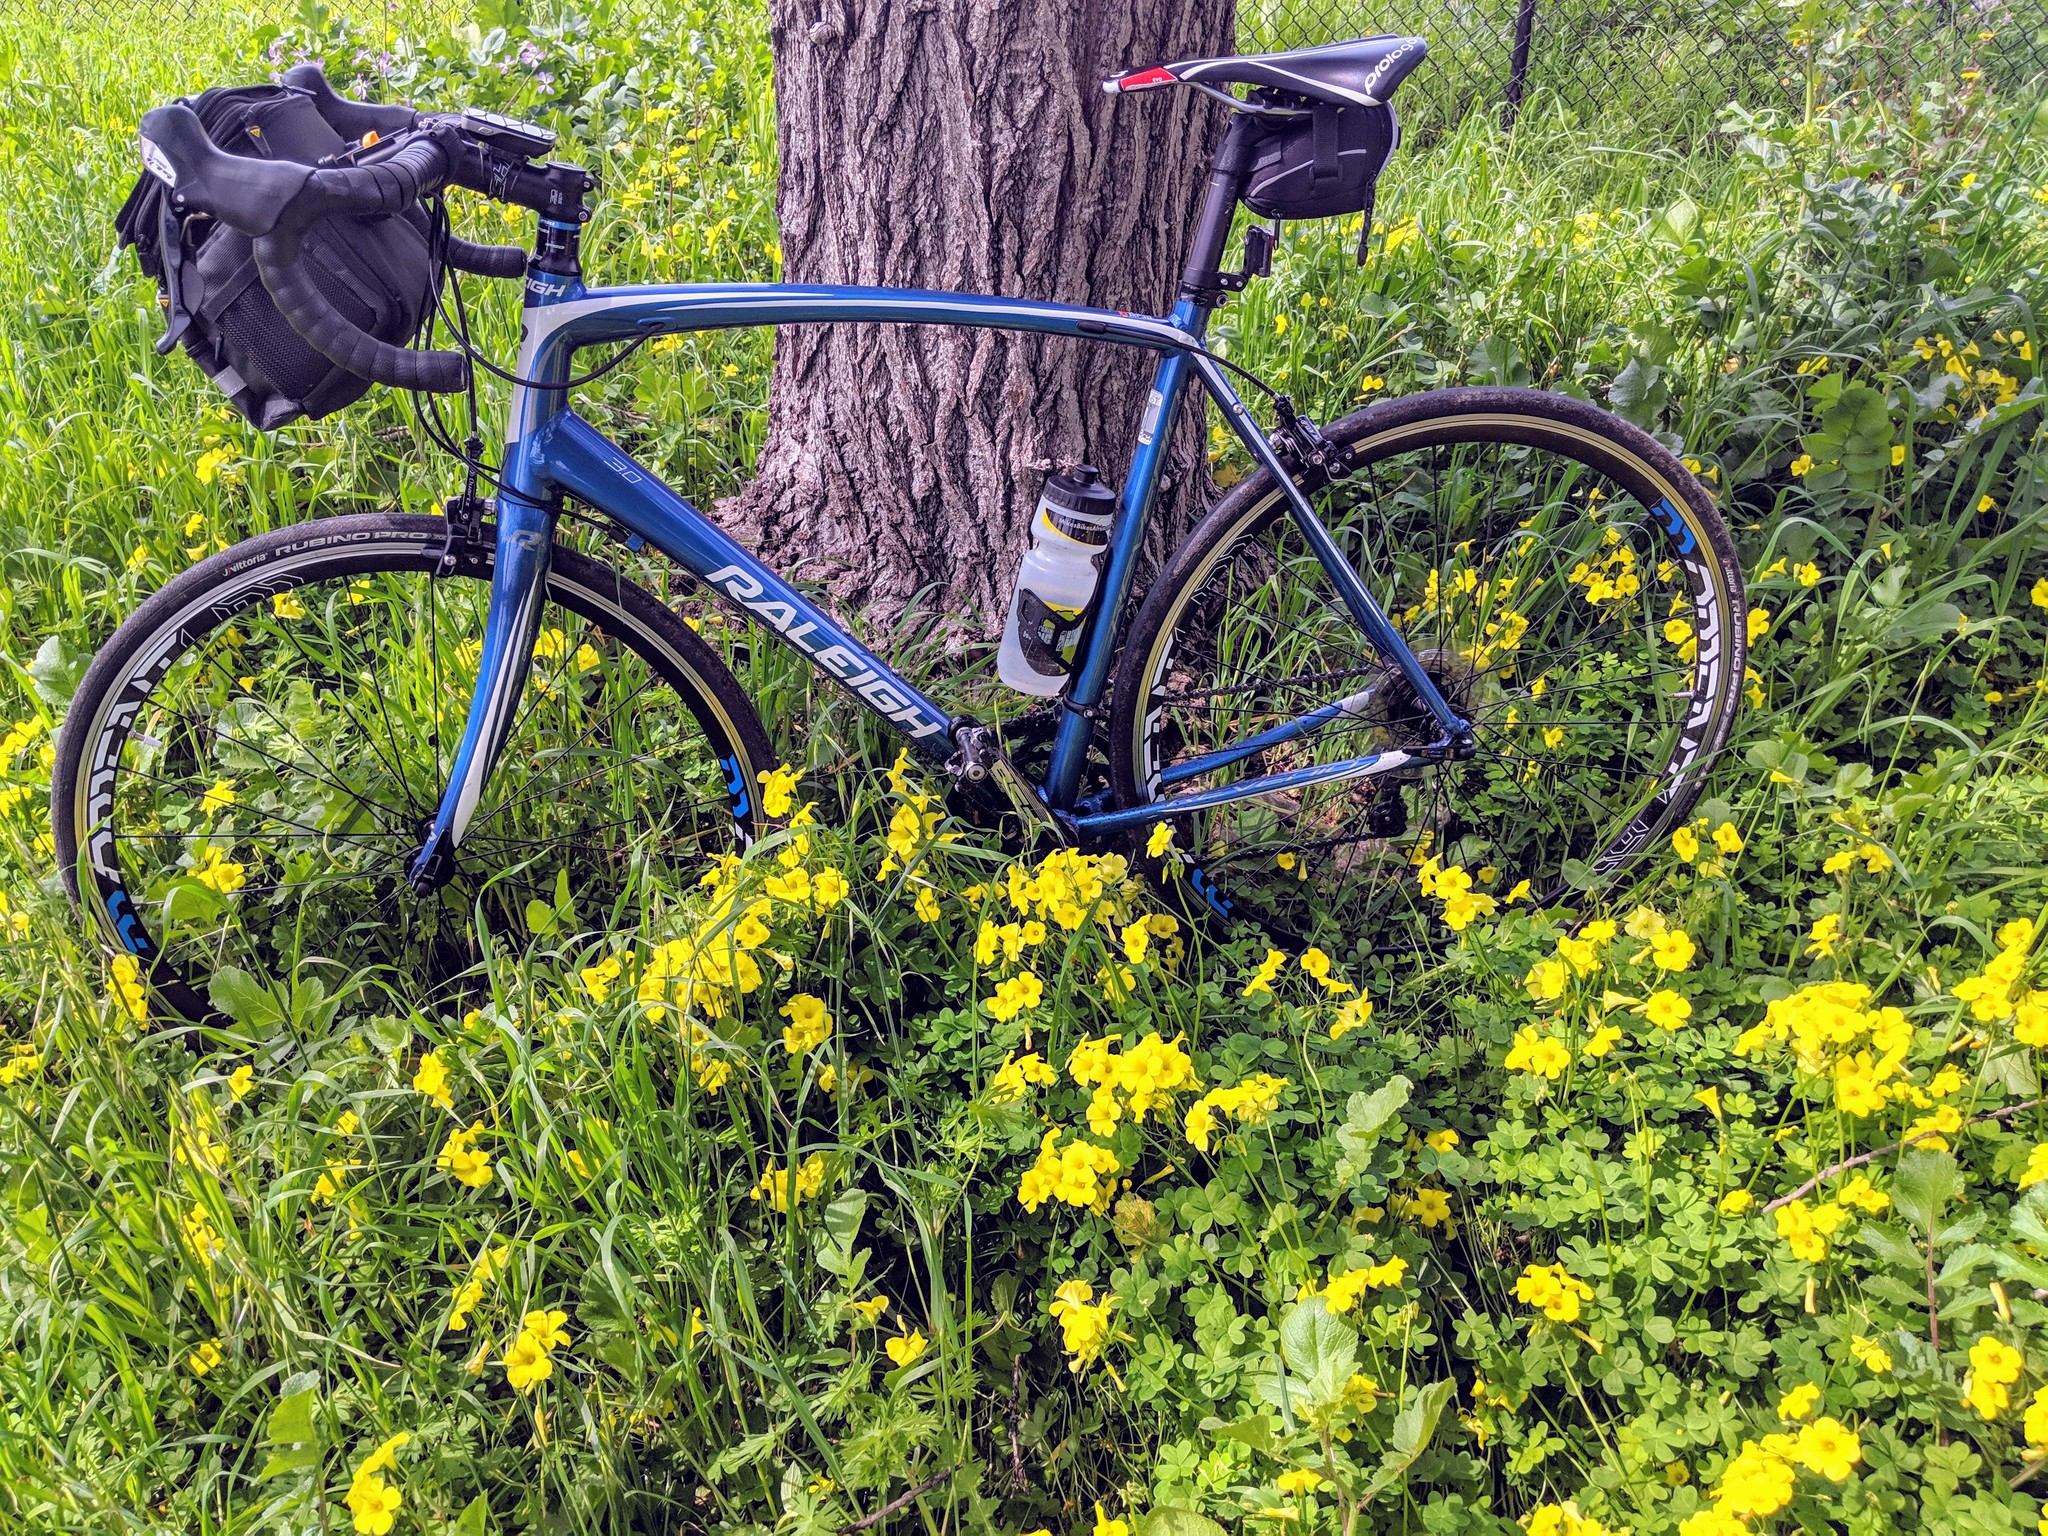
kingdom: Plantae
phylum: Tracheophyta
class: Magnoliopsida
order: Oxalidales
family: Oxalidaceae
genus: Oxalis
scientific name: Oxalis pes-caprae
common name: Bermuda-buttercup
